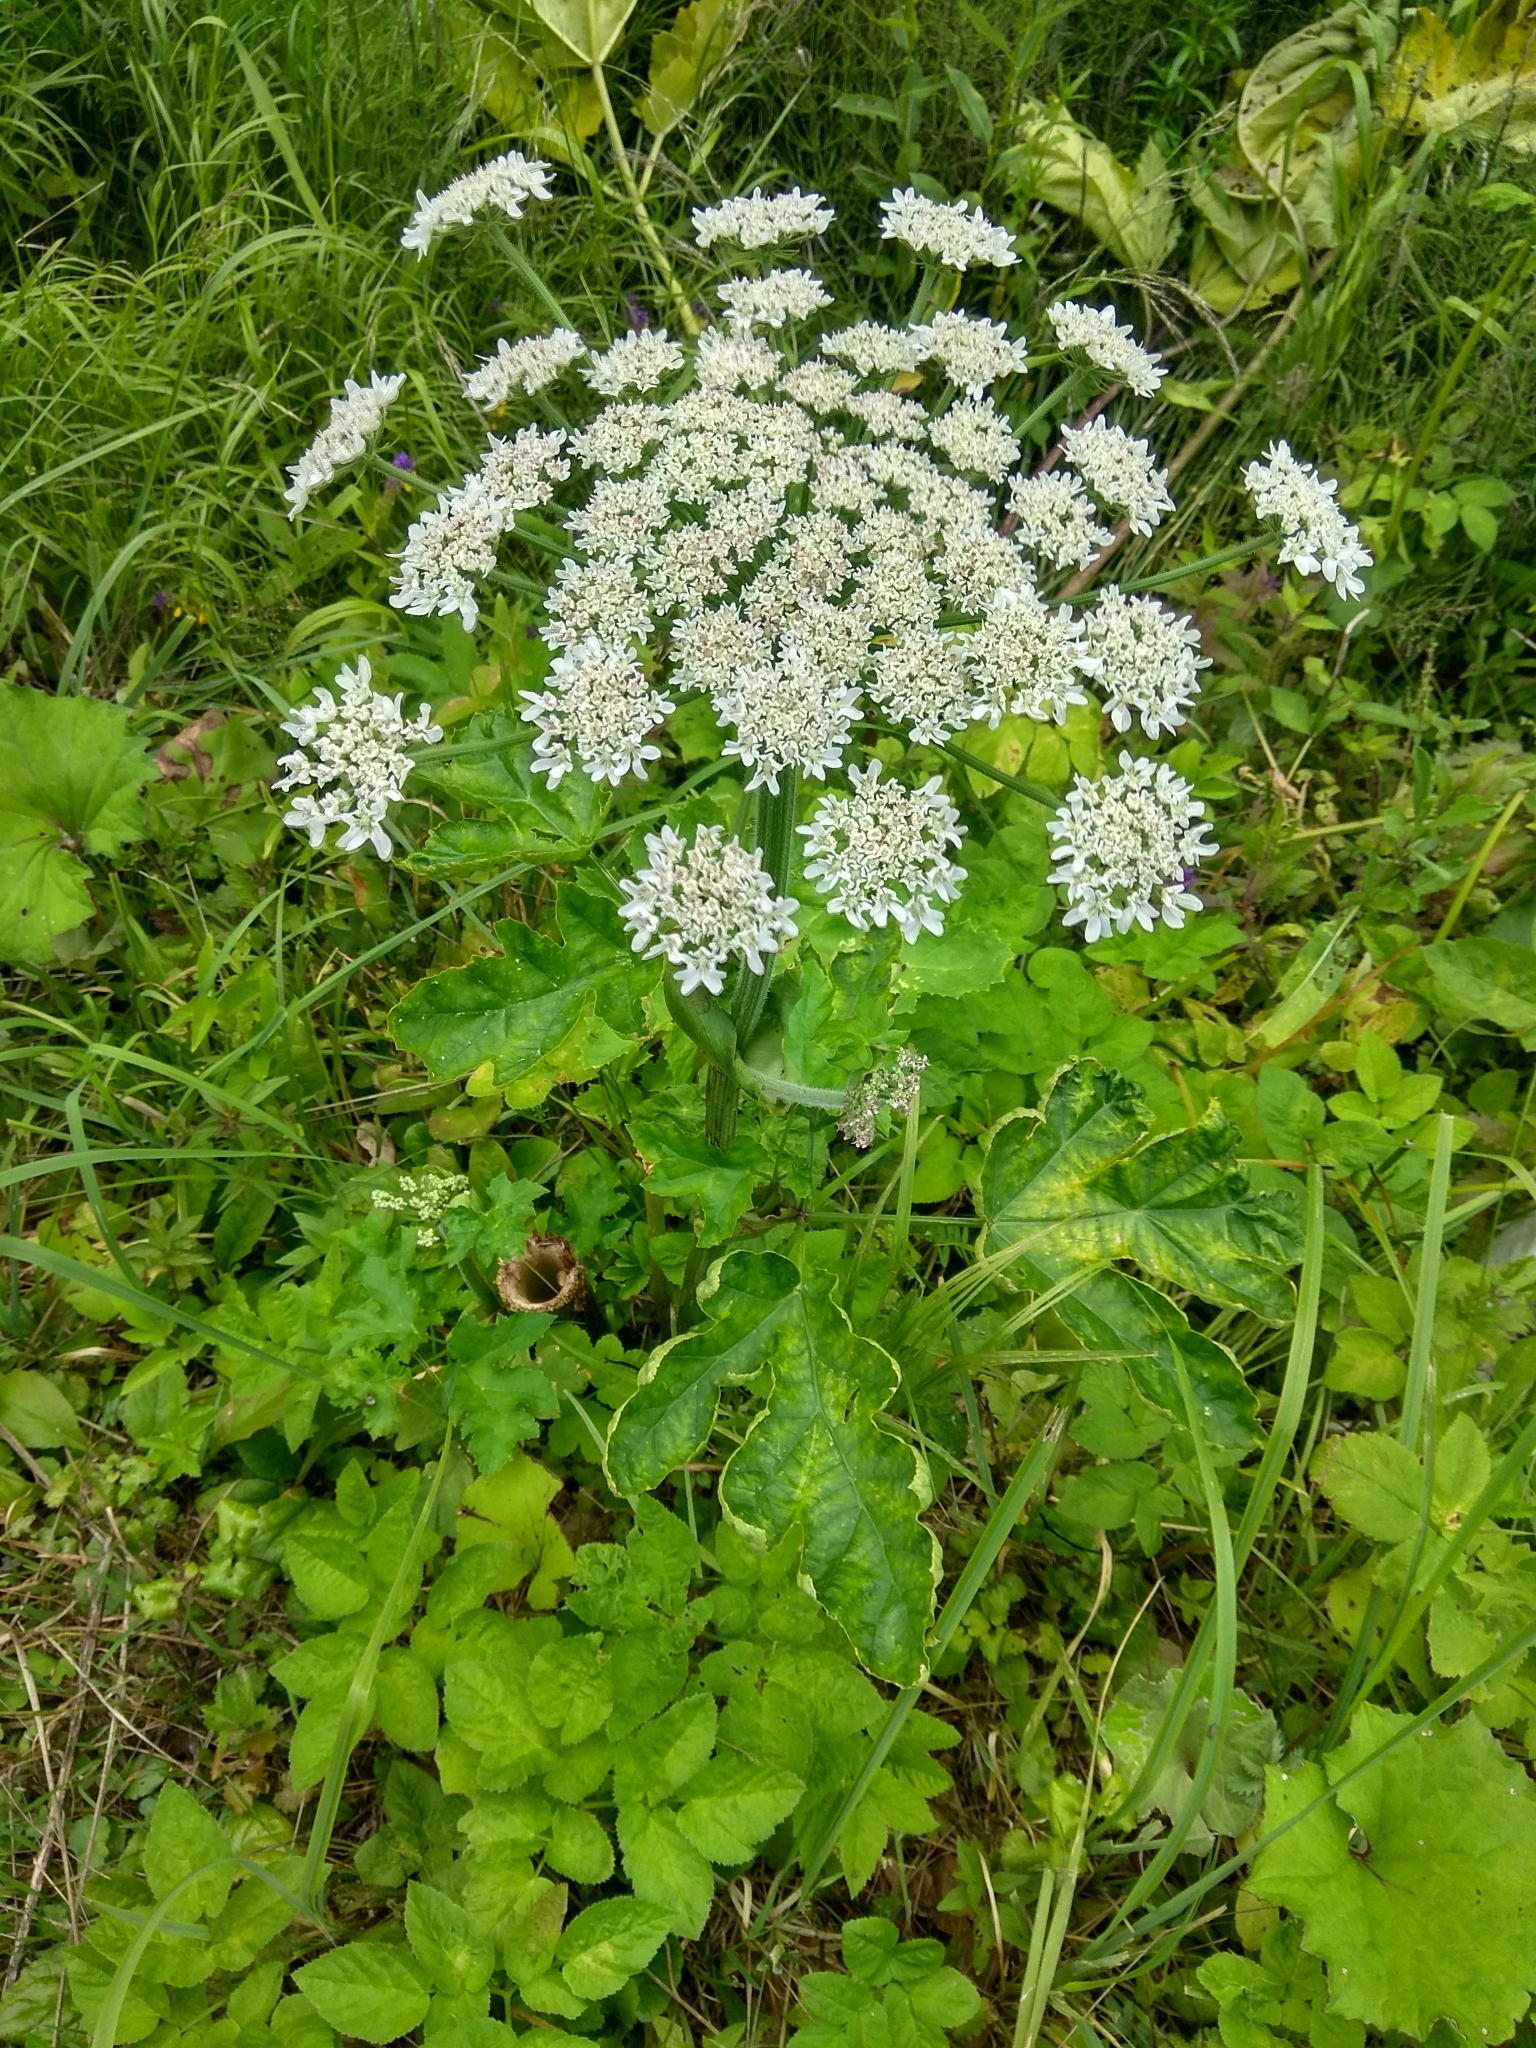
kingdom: Plantae
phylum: Tracheophyta
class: Magnoliopsida
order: Apiales
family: Apiaceae
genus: Heracleum
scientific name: Heracleum sosnowskyi
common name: Sosnowsky's hogweed
